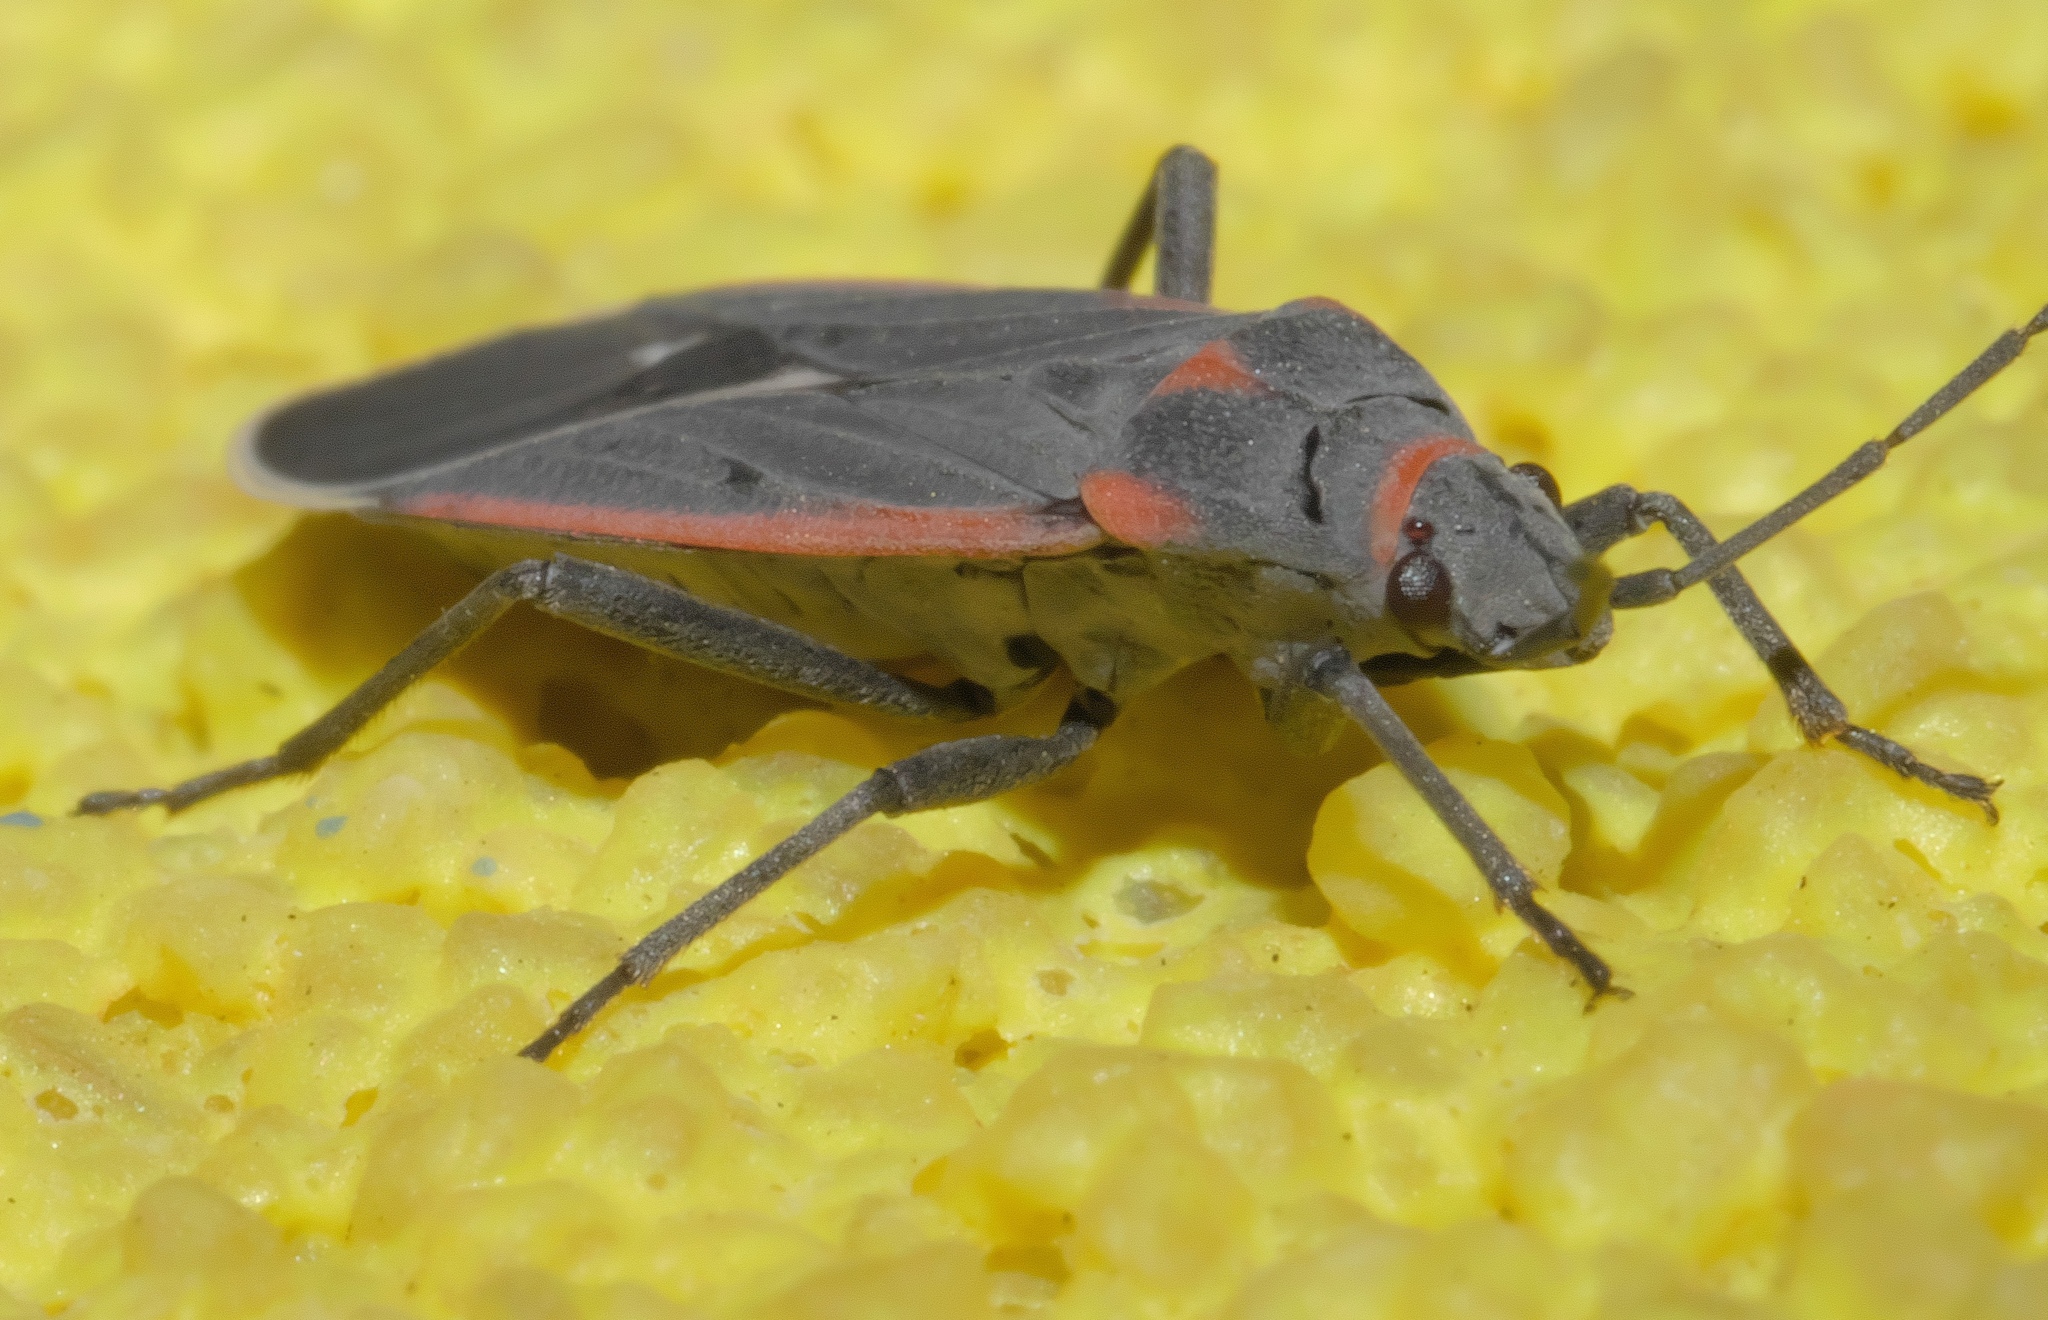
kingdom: Animalia
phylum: Arthropoda
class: Insecta
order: Hemiptera
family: Lygaeidae
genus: Melacoryphus
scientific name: Melacoryphus lateralis
